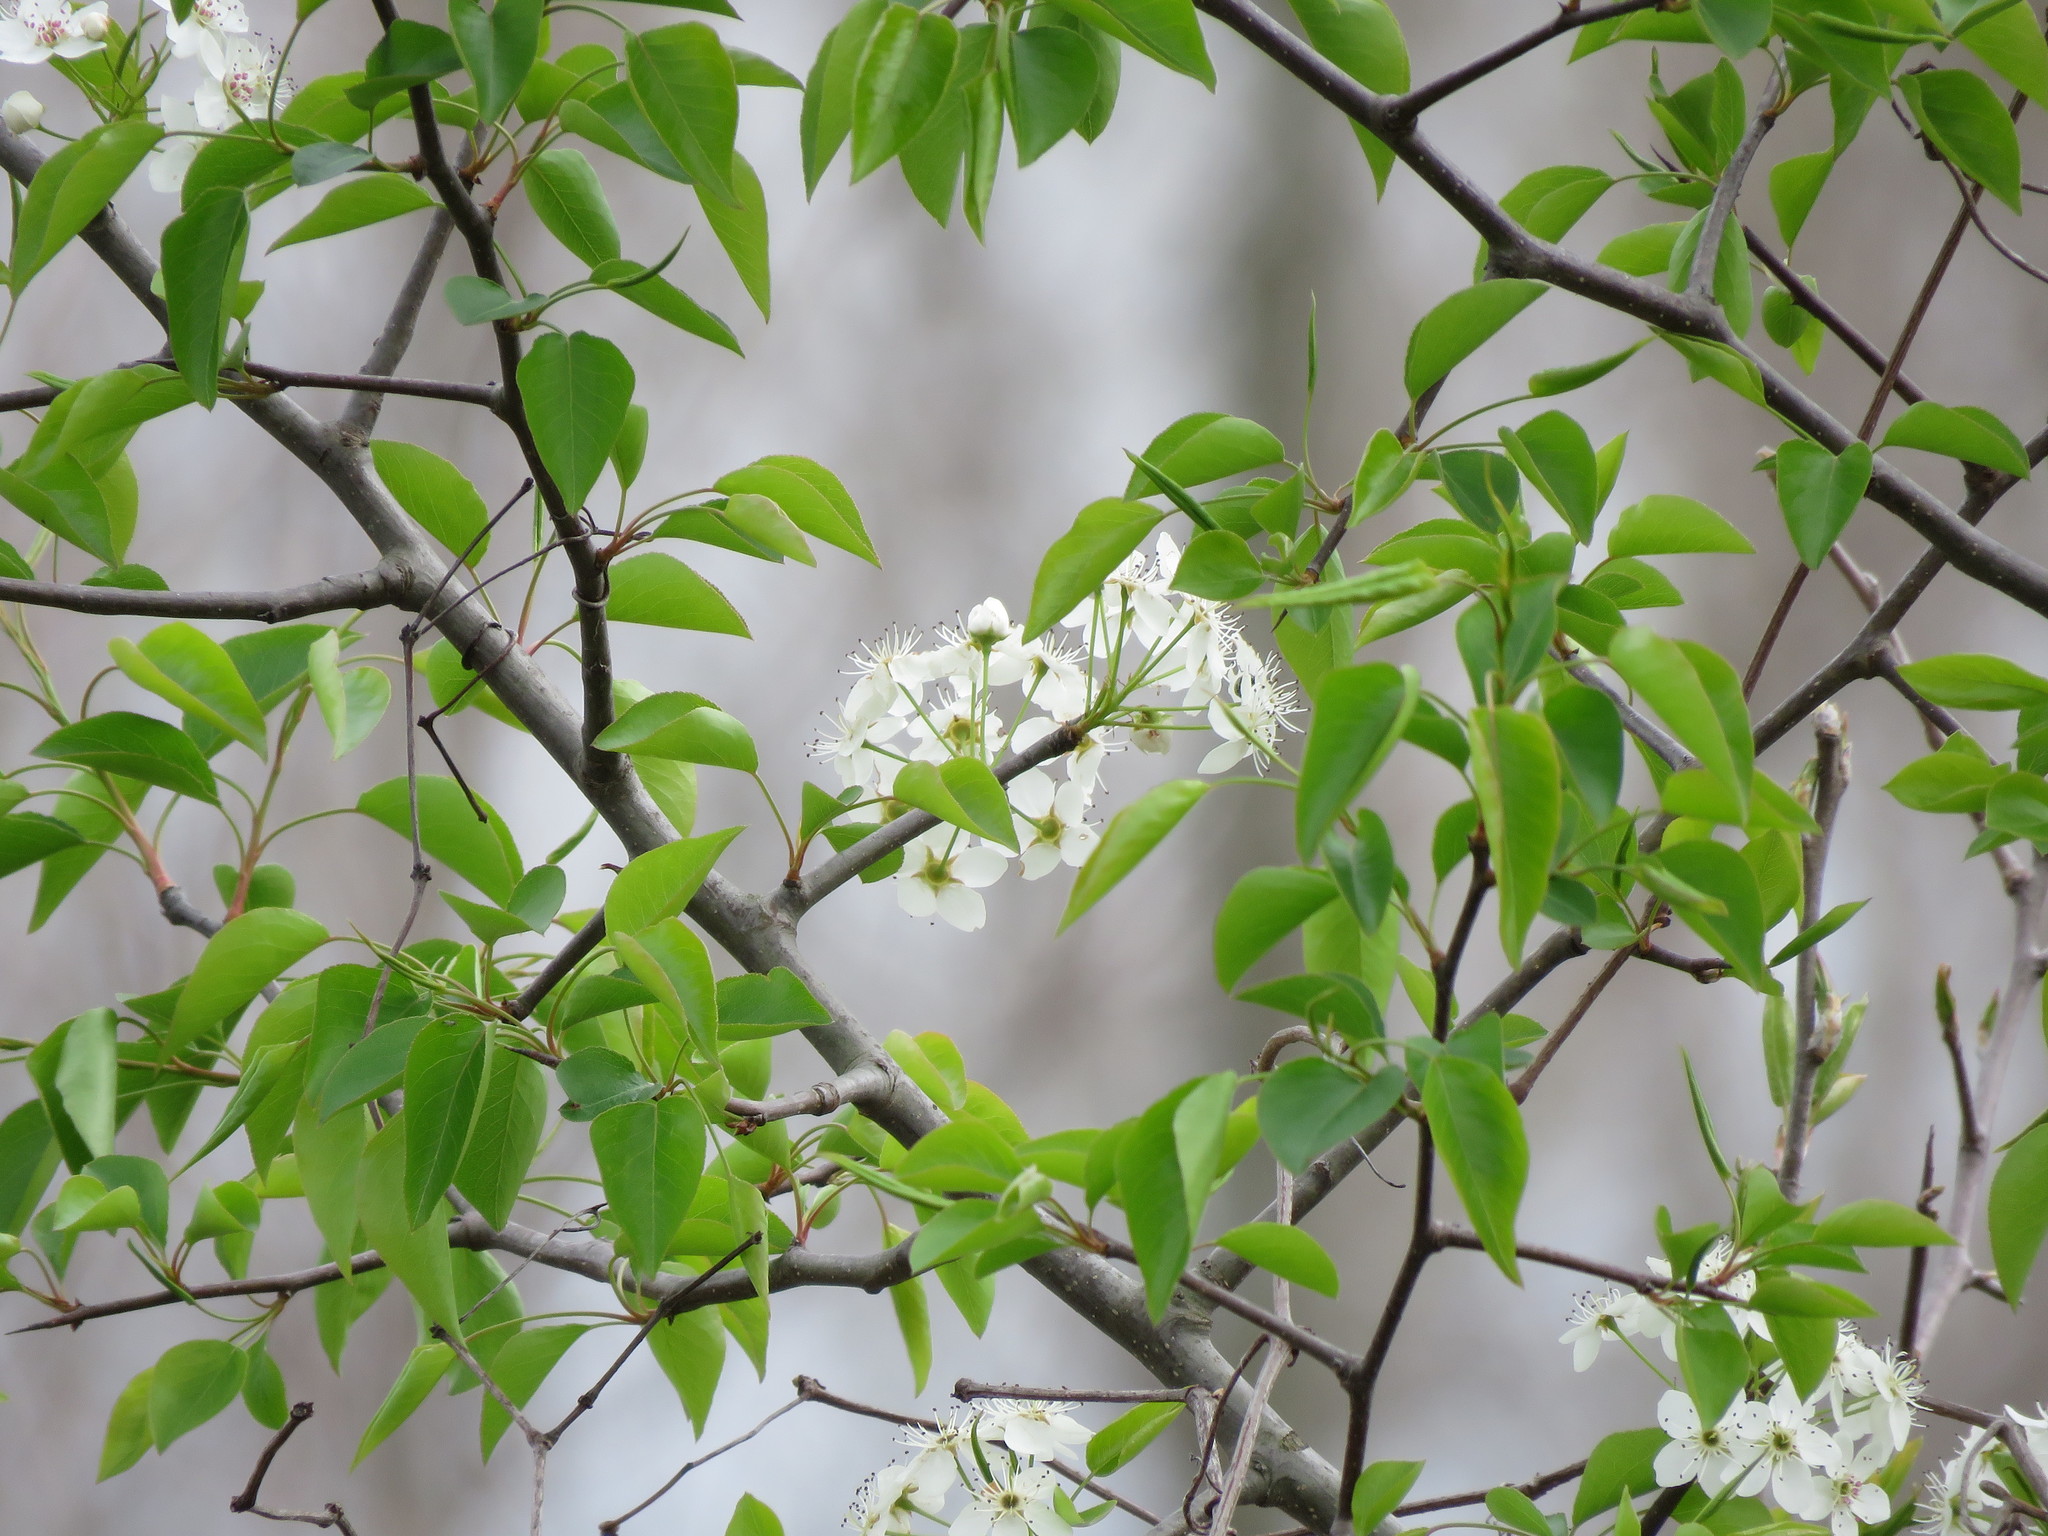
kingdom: Plantae
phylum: Tracheophyta
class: Magnoliopsida
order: Rosales
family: Rosaceae
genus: Pyrus
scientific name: Pyrus calleryana
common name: Callery pear
